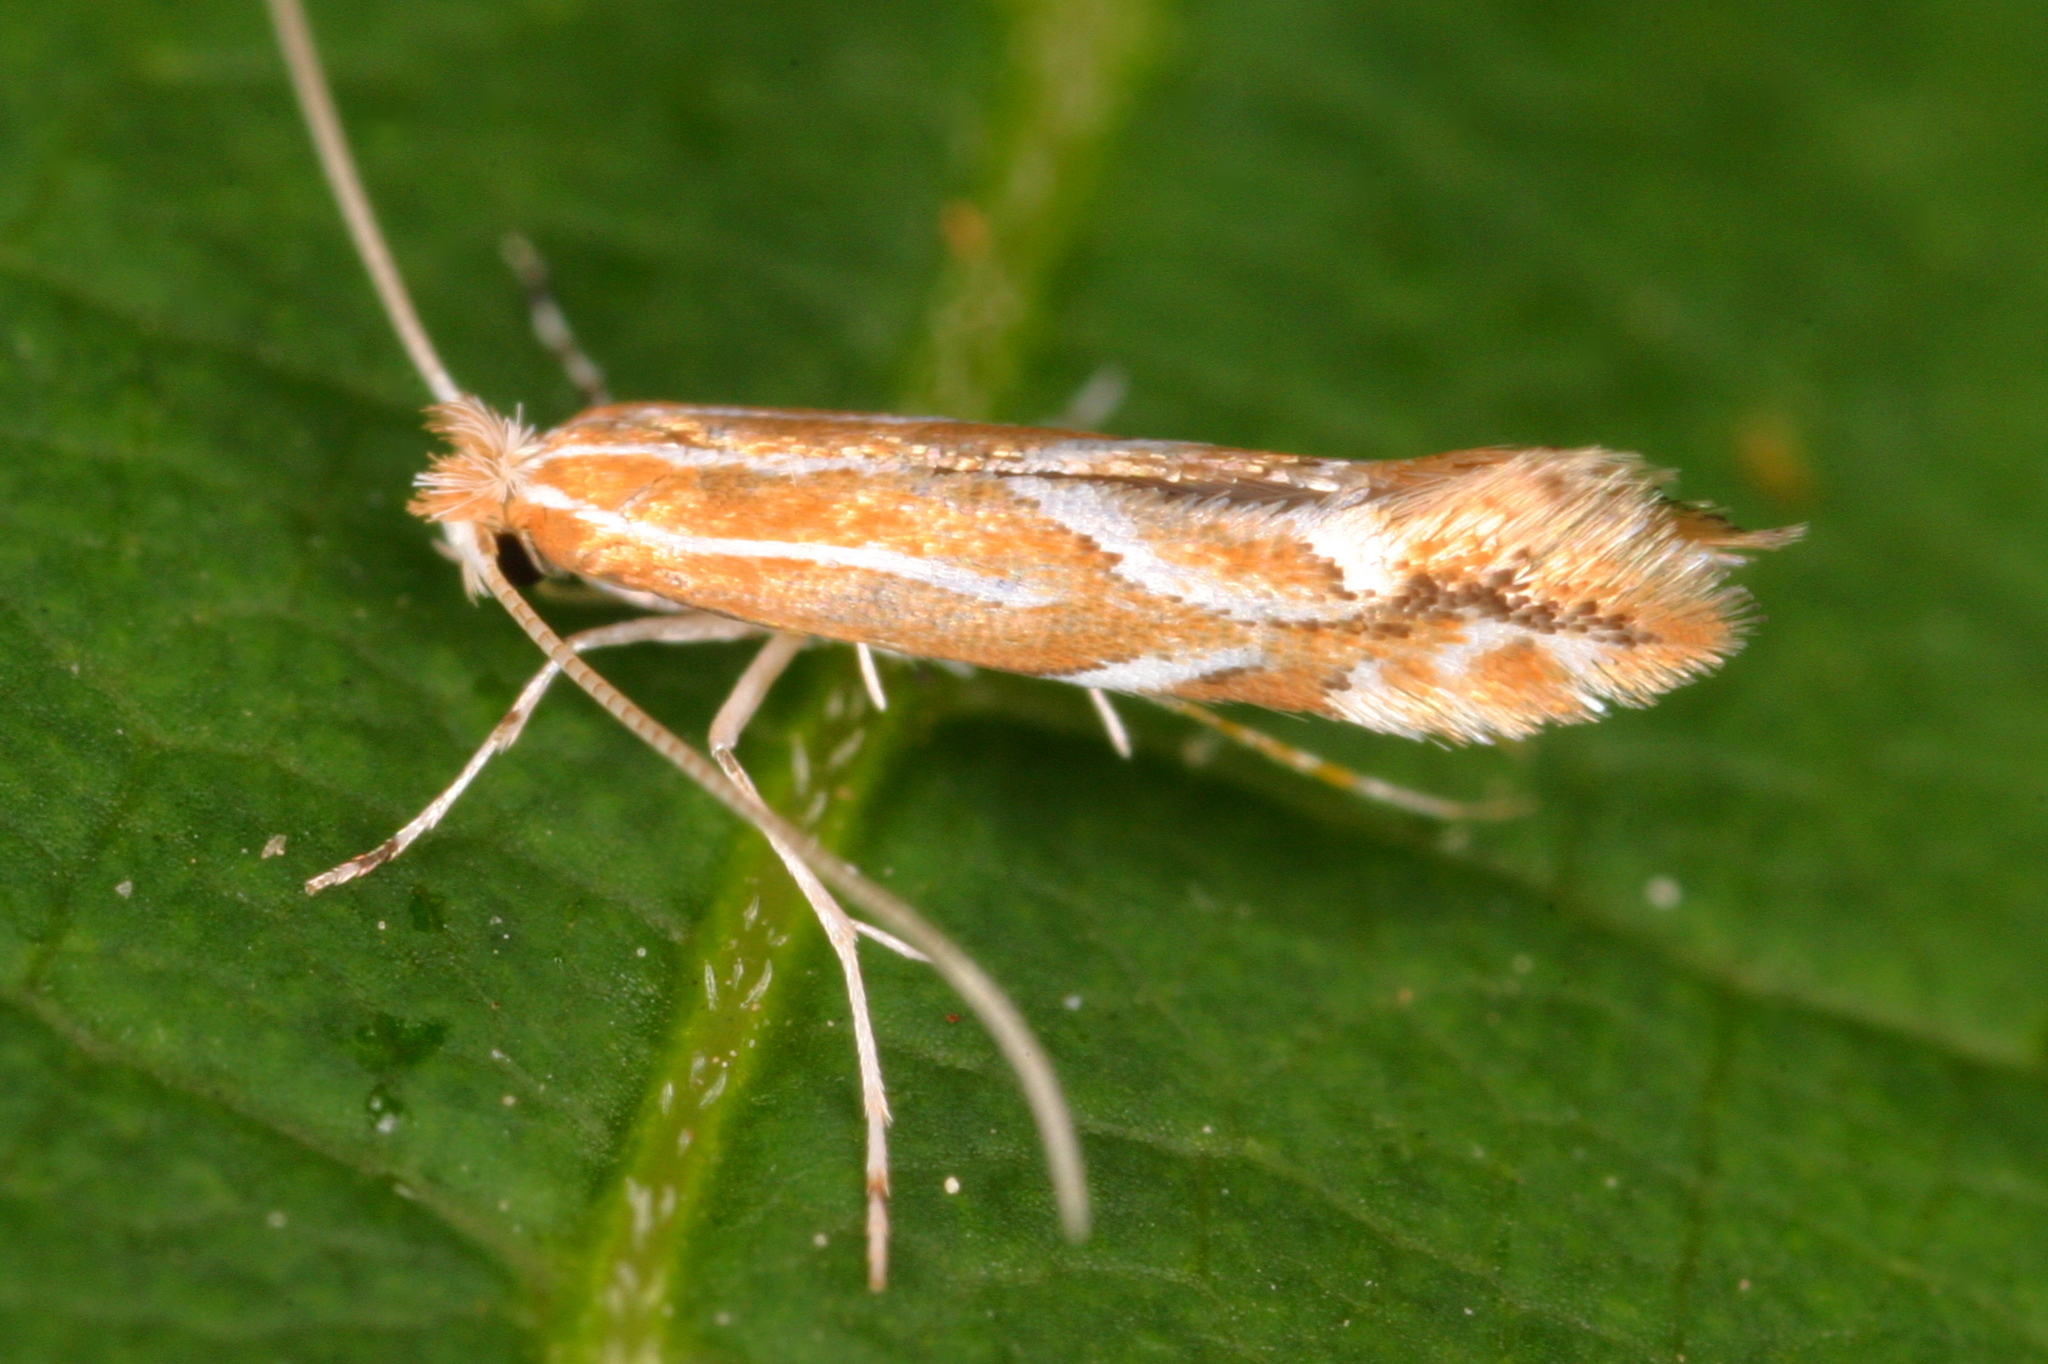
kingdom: Animalia
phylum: Arthropoda
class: Insecta
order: Lepidoptera
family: Gracillariidae
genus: Phyllonorycter
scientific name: Phyllonorycter leucographella
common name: Firethorn leaf-miner
